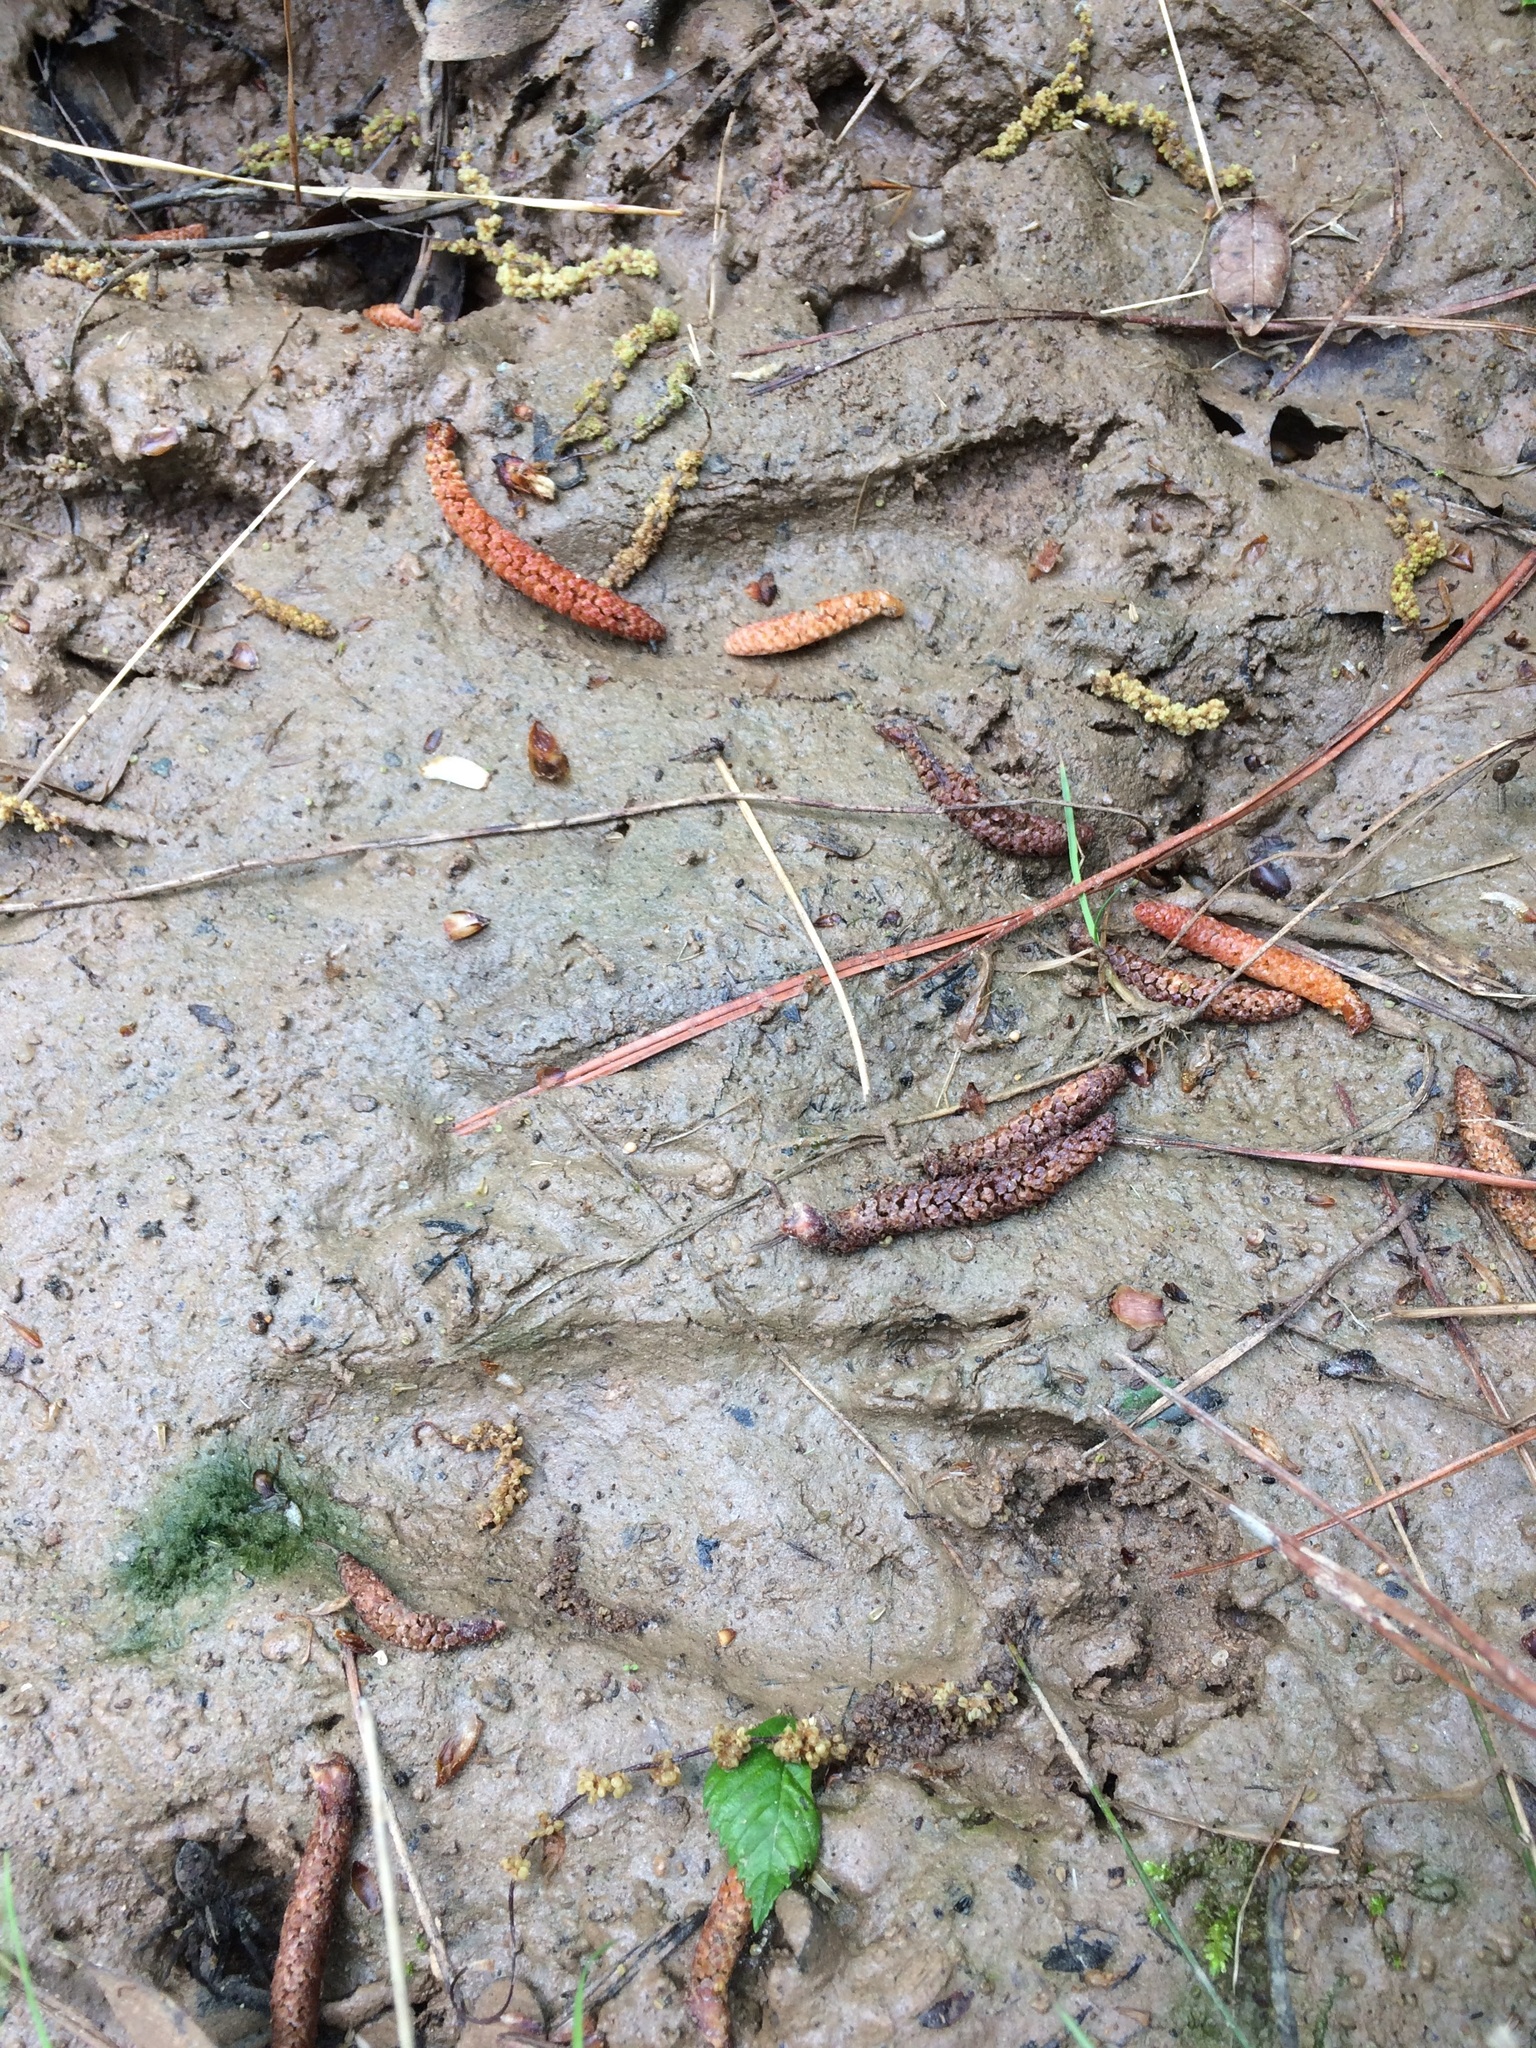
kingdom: Animalia
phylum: Chordata
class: Mammalia
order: Carnivora
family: Procyonidae
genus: Procyon
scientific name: Procyon lotor
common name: Raccoon
